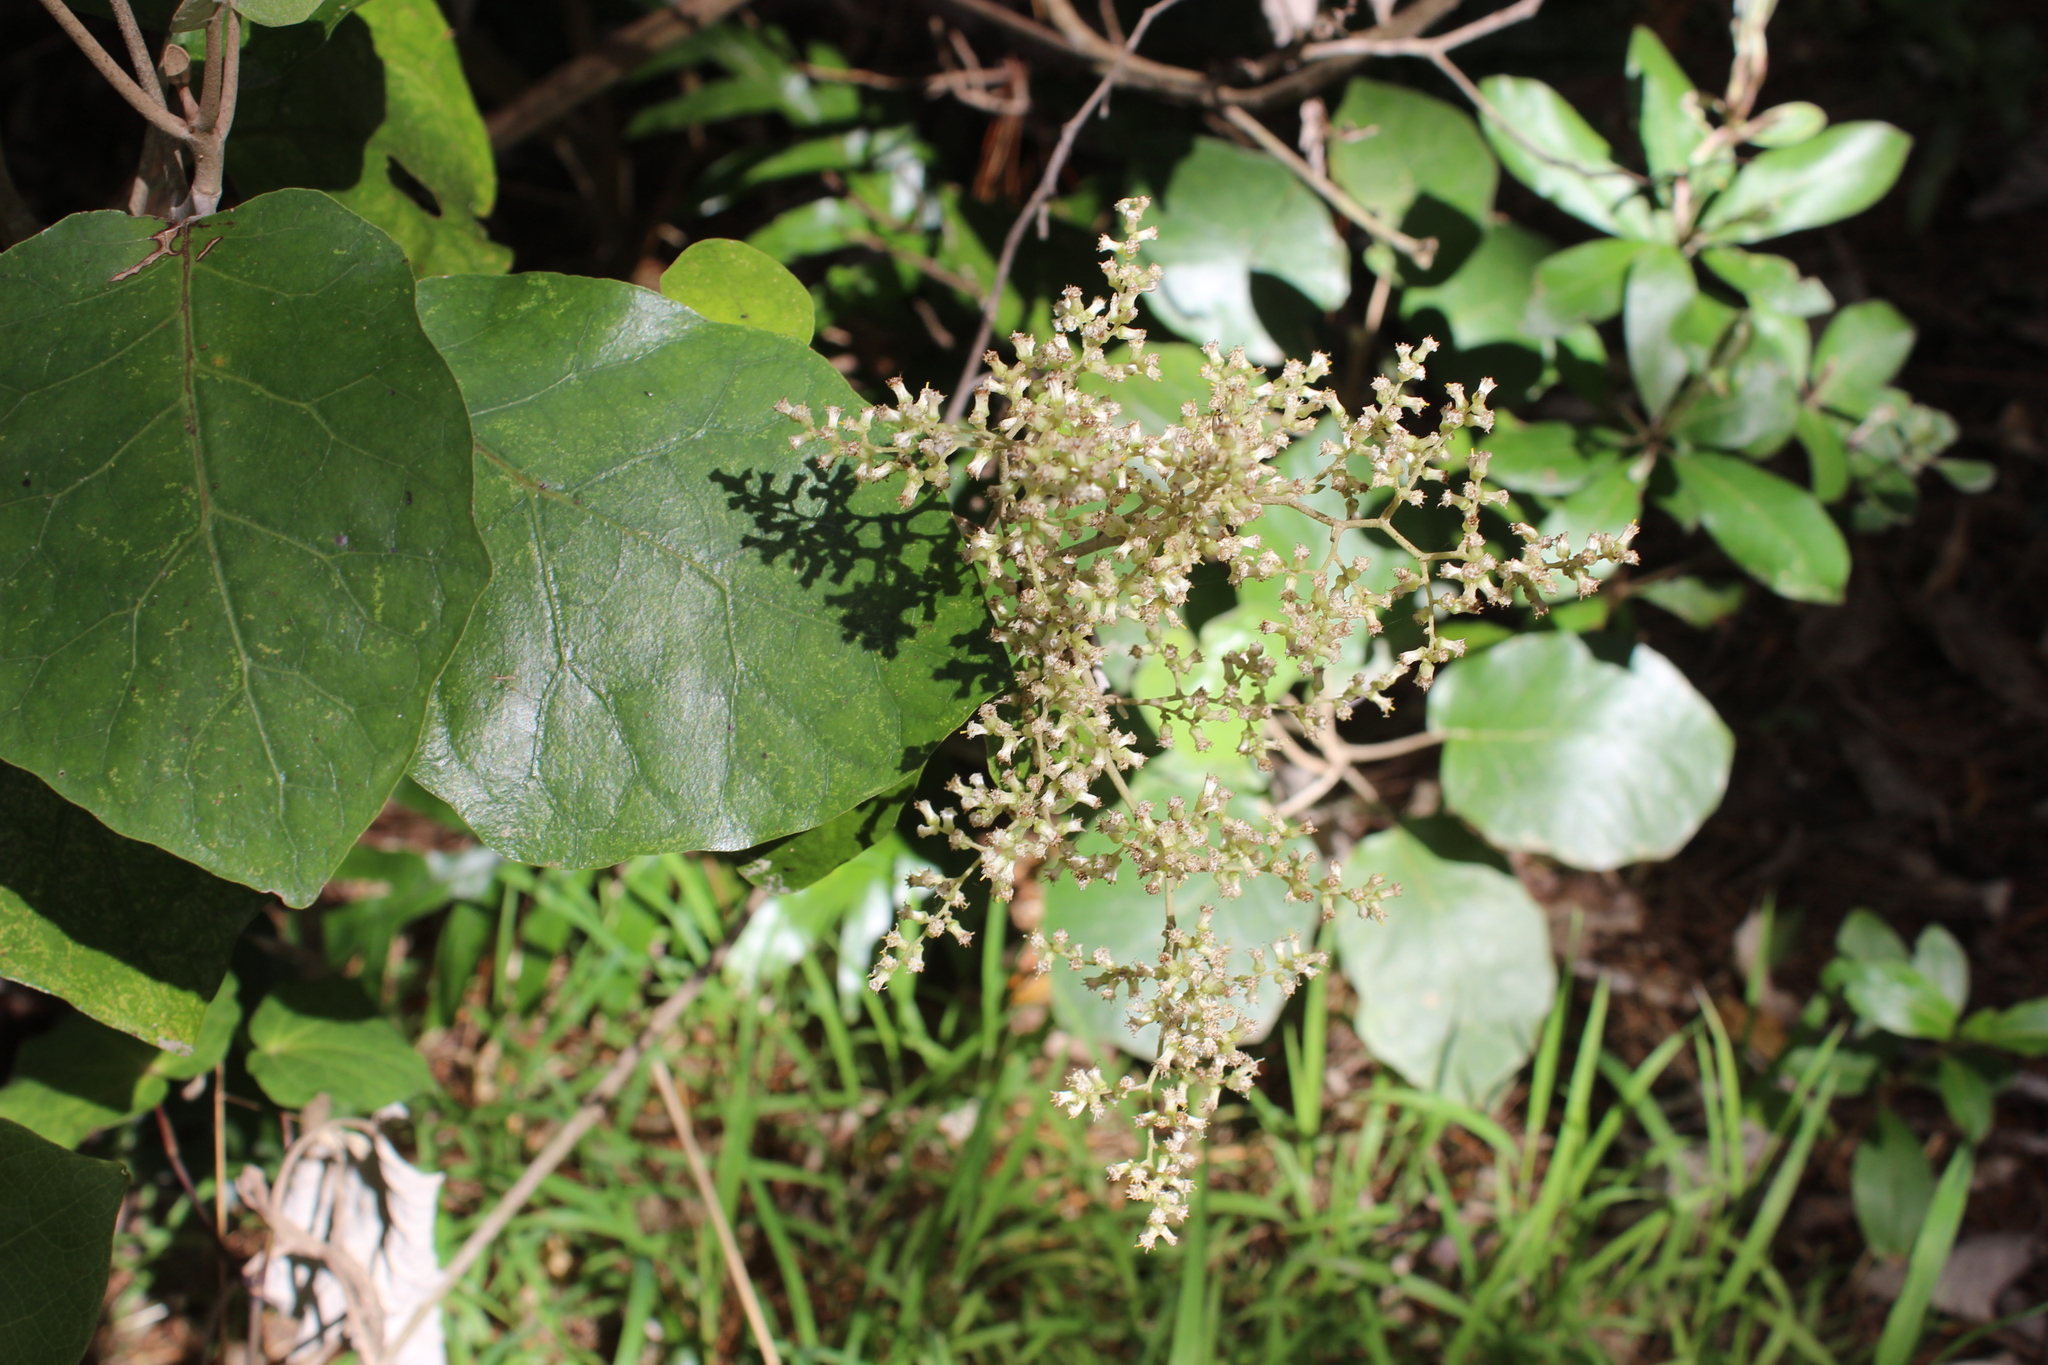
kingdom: Plantae
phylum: Tracheophyta
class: Magnoliopsida
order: Asterales
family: Asteraceae
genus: Brachyglottis
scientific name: Brachyglottis repanda
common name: Hedge ragwort
